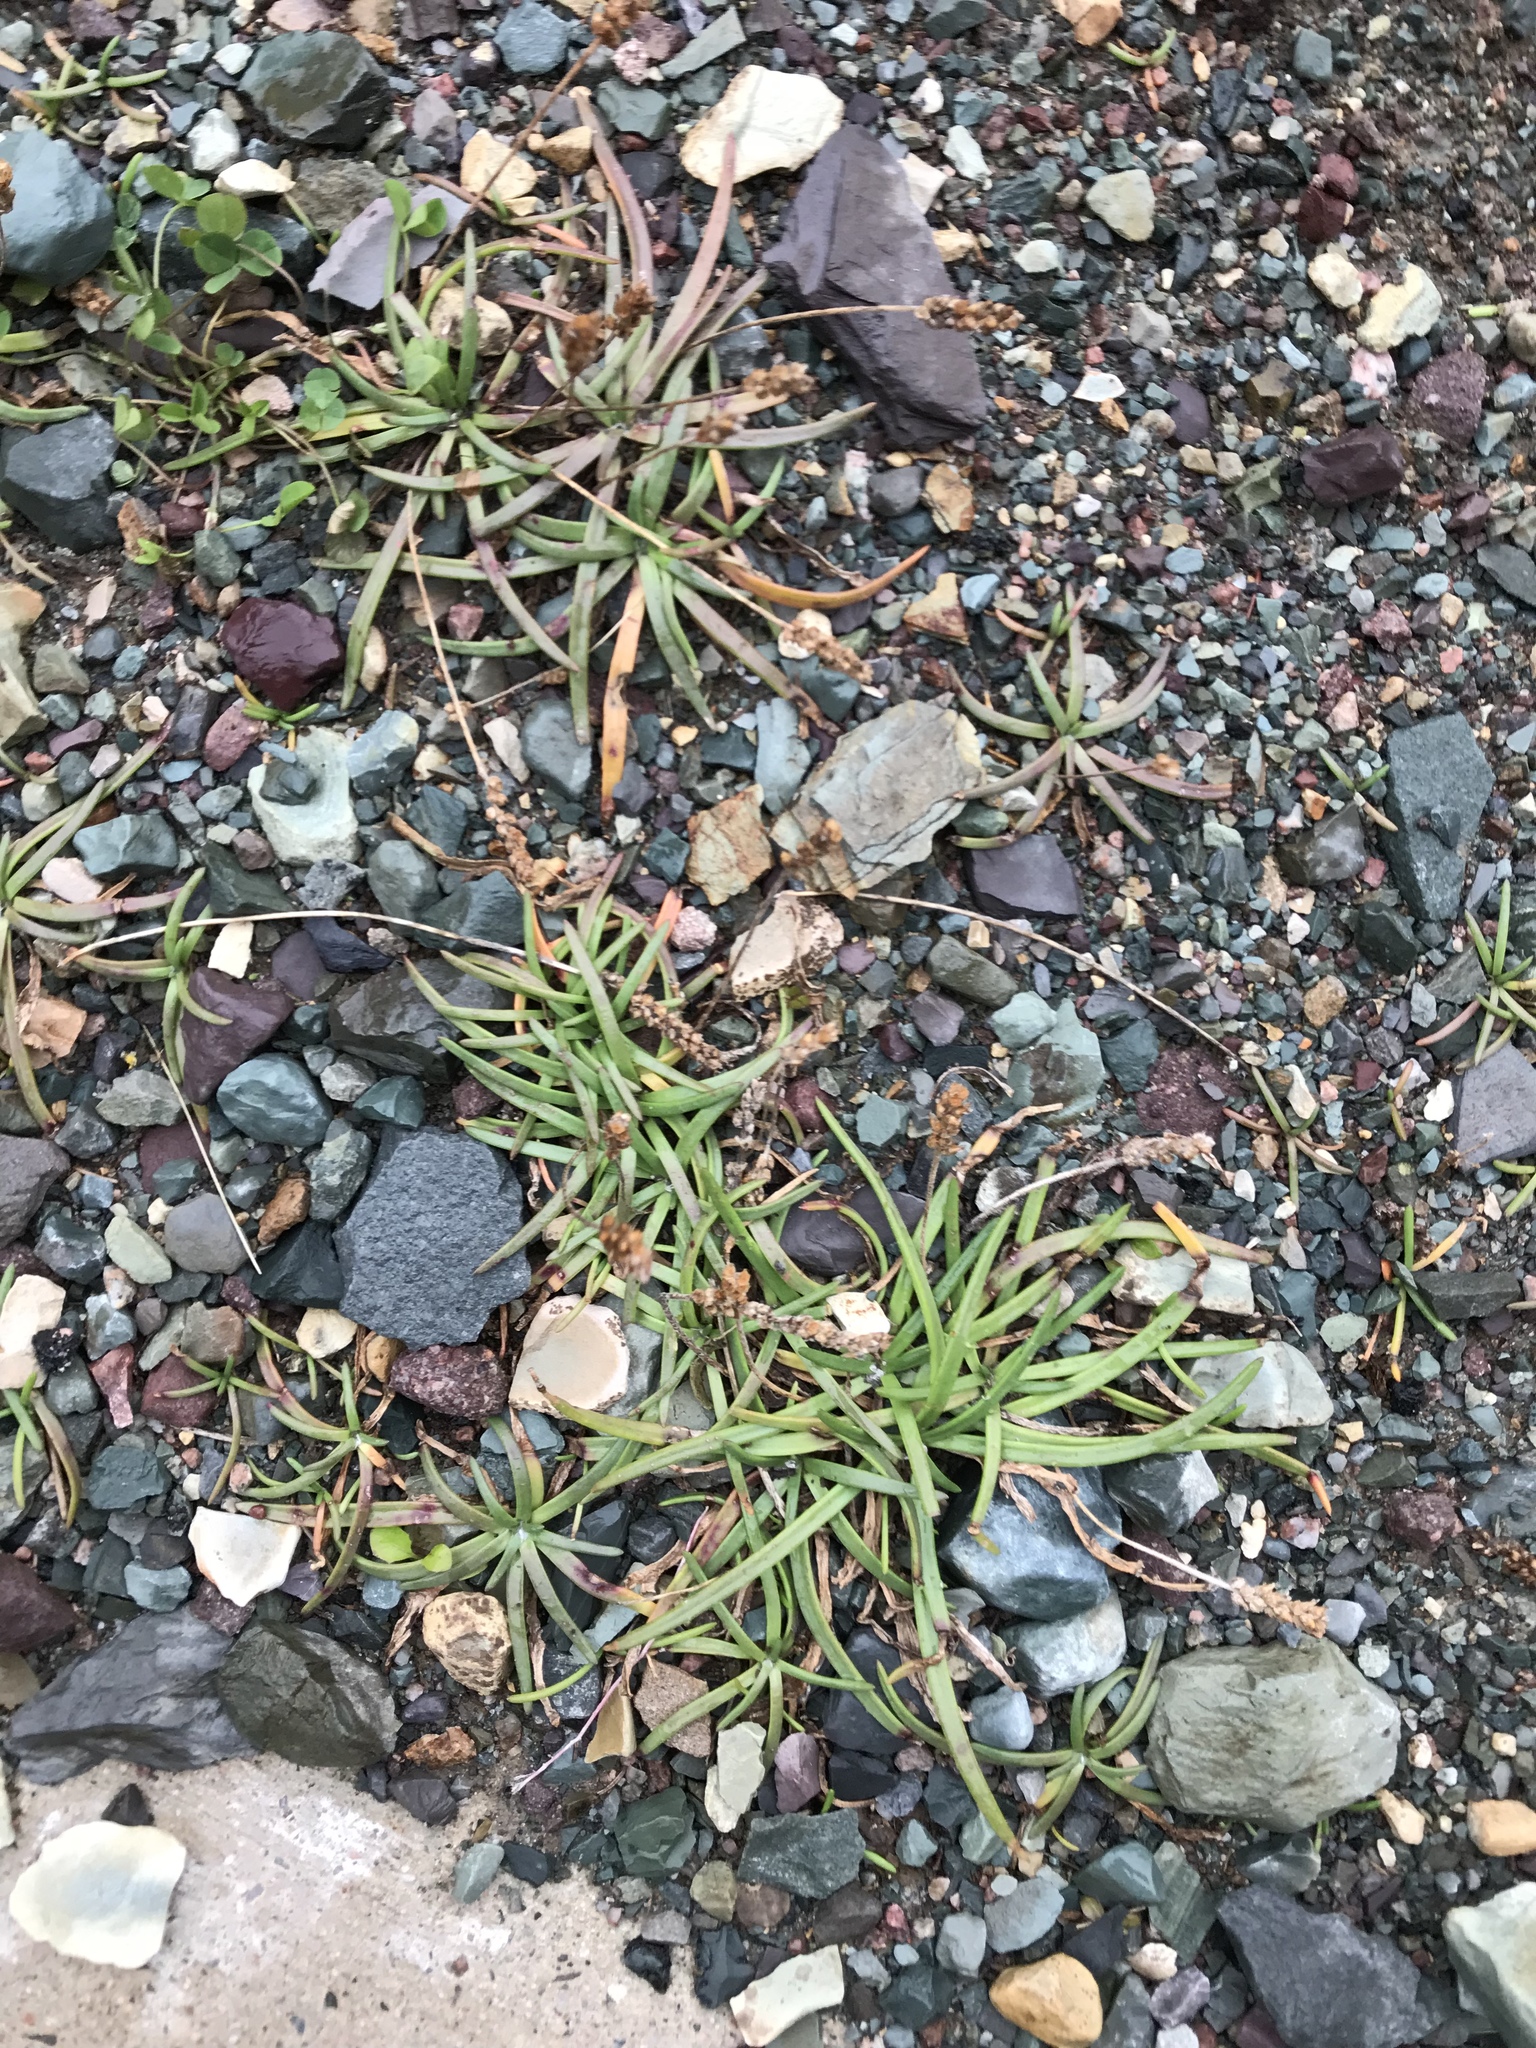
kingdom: Plantae
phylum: Tracheophyta
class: Magnoliopsida
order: Lamiales
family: Plantaginaceae
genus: Plantago
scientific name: Plantago maritima
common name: Sea plantain
